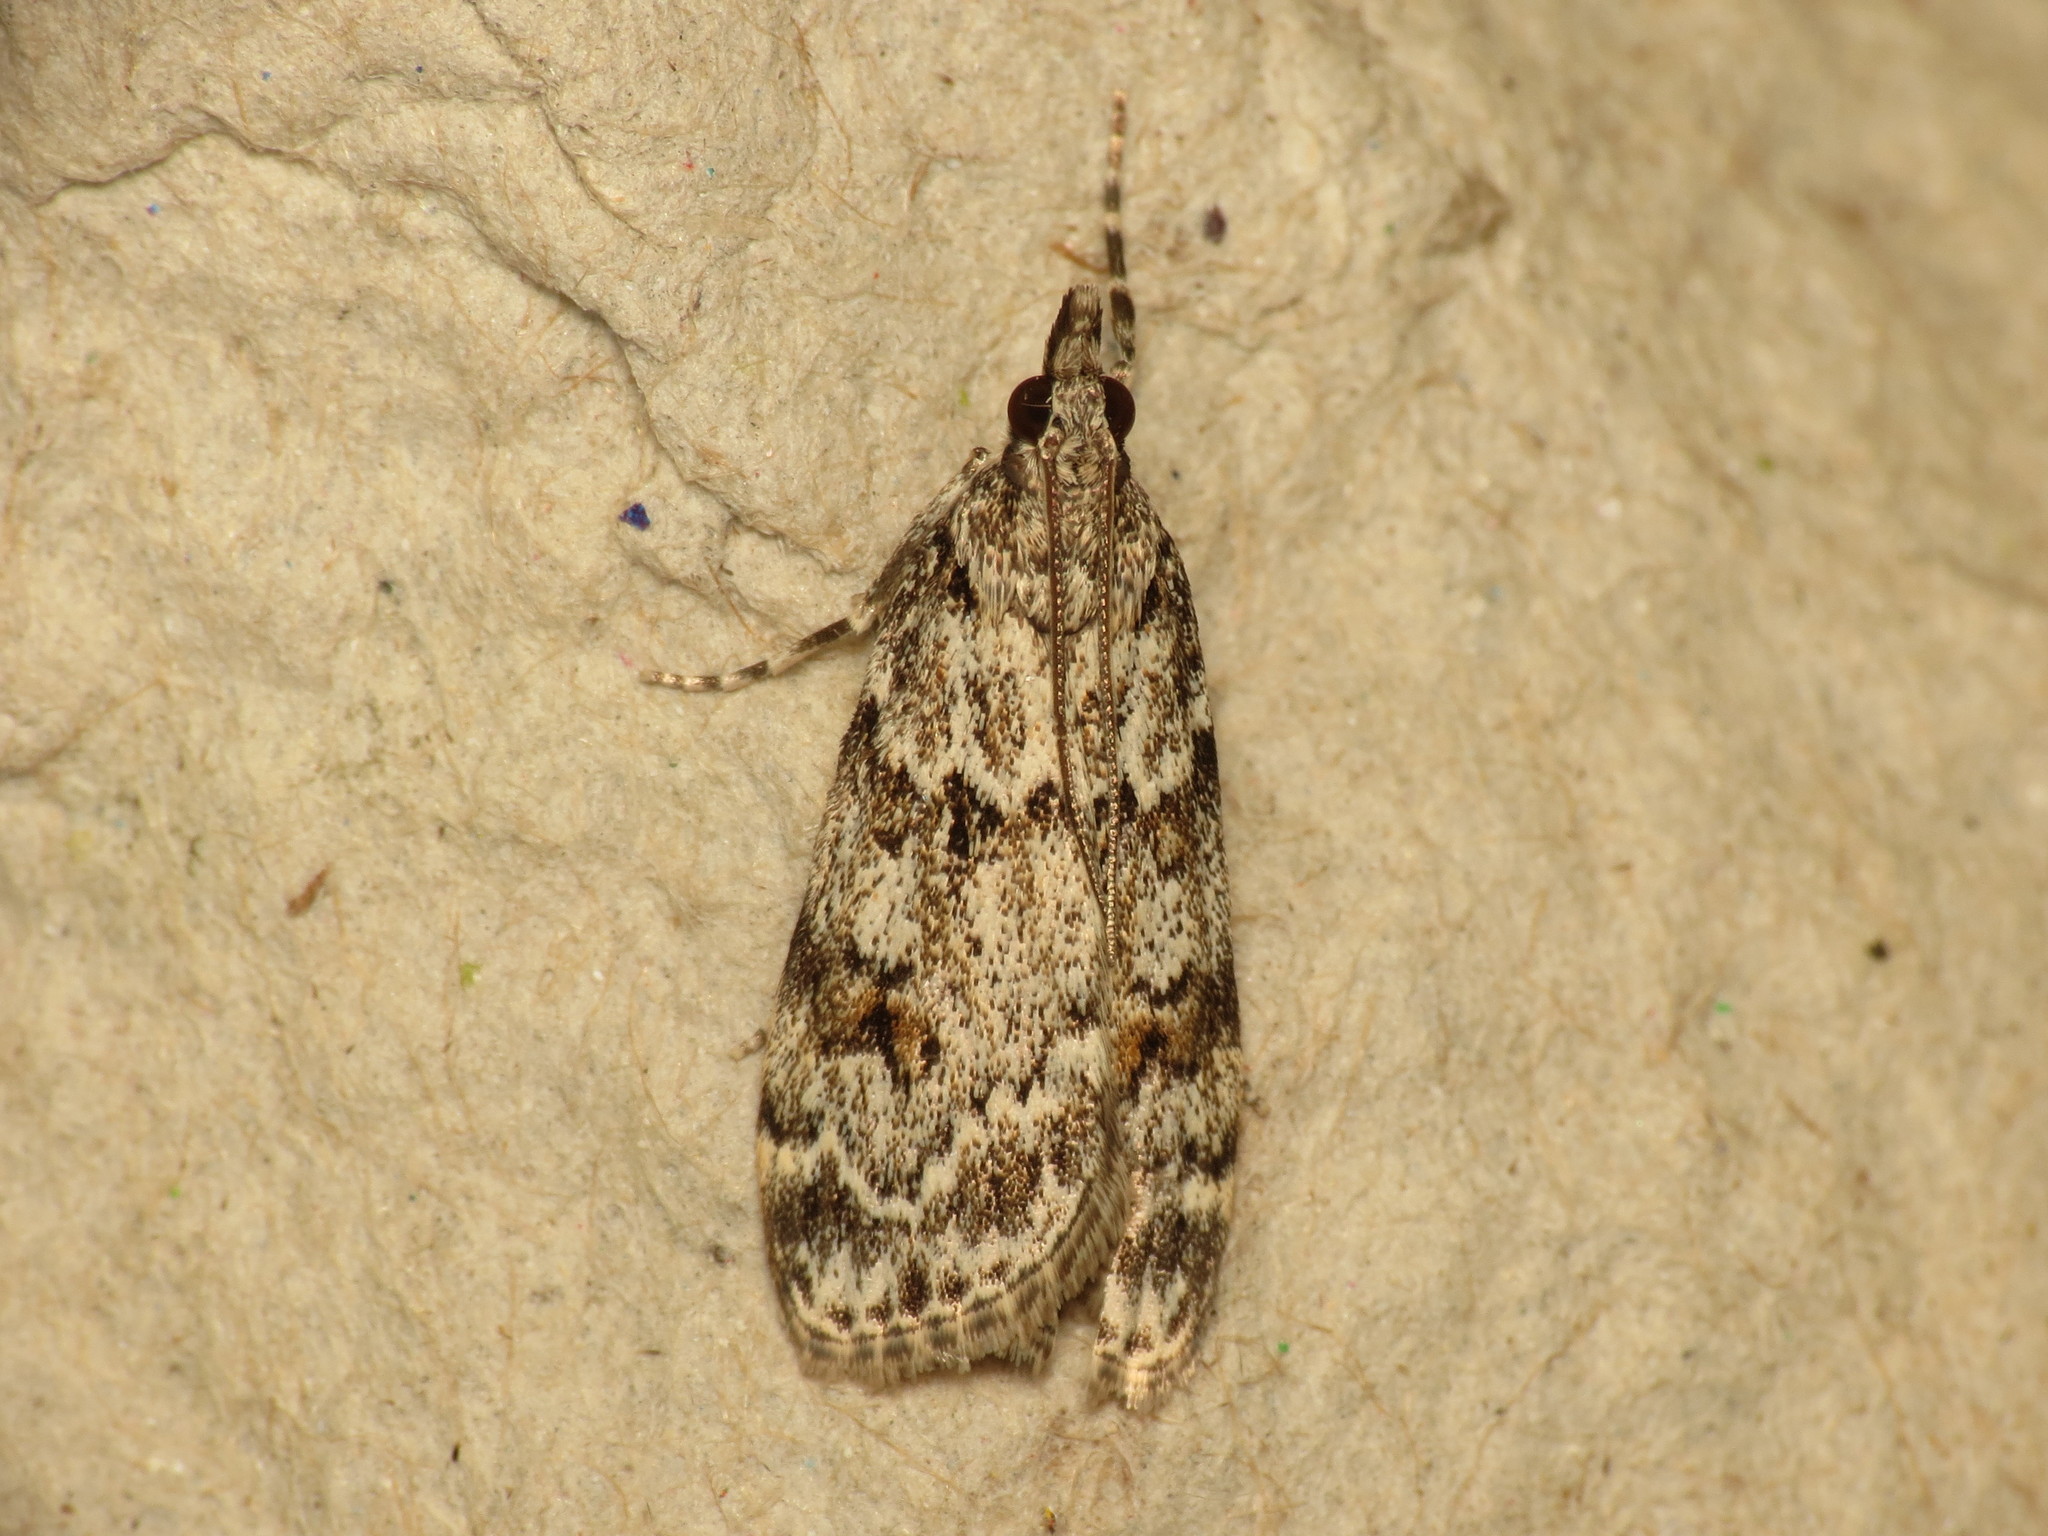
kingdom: Animalia
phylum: Arthropoda
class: Insecta
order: Lepidoptera
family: Crambidae
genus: Scoparia
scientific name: Scoparia ambigualis
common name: Common grey
